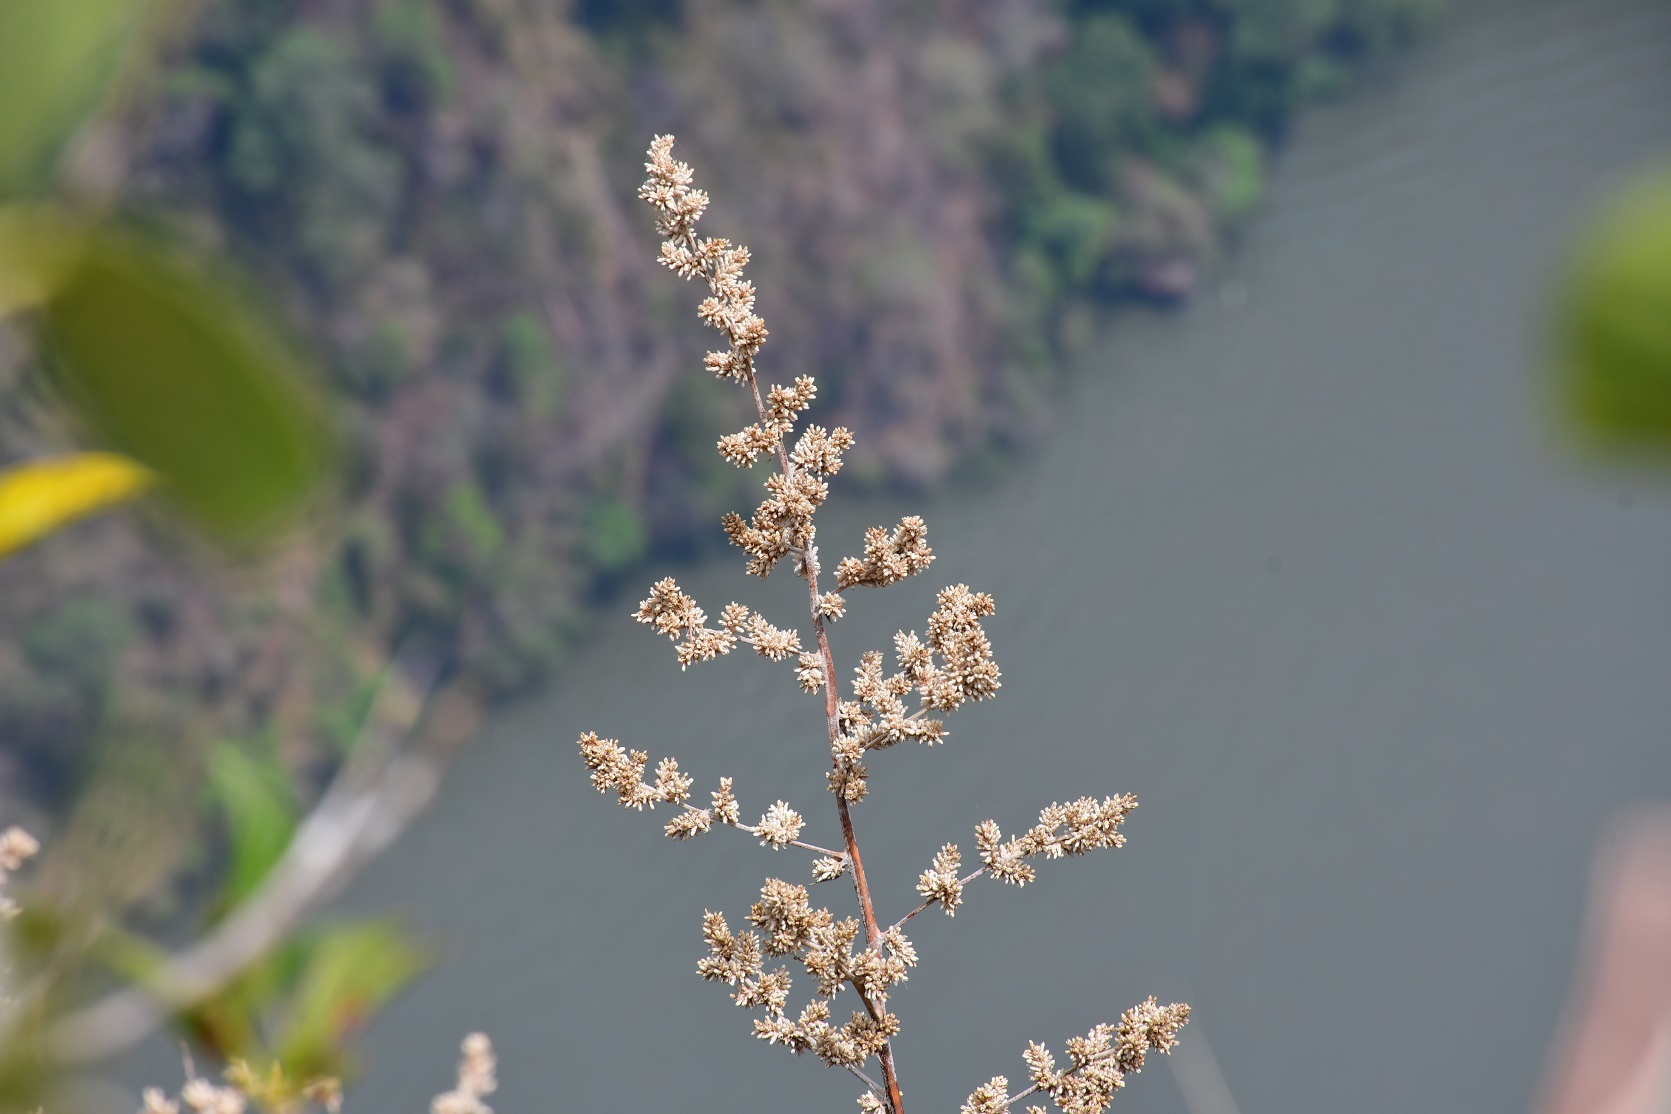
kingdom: Plantae
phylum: Tracheophyta
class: Liliopsida
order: Poales
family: Bromeliaceae
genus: Hechtia
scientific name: Hechtia glomerata
